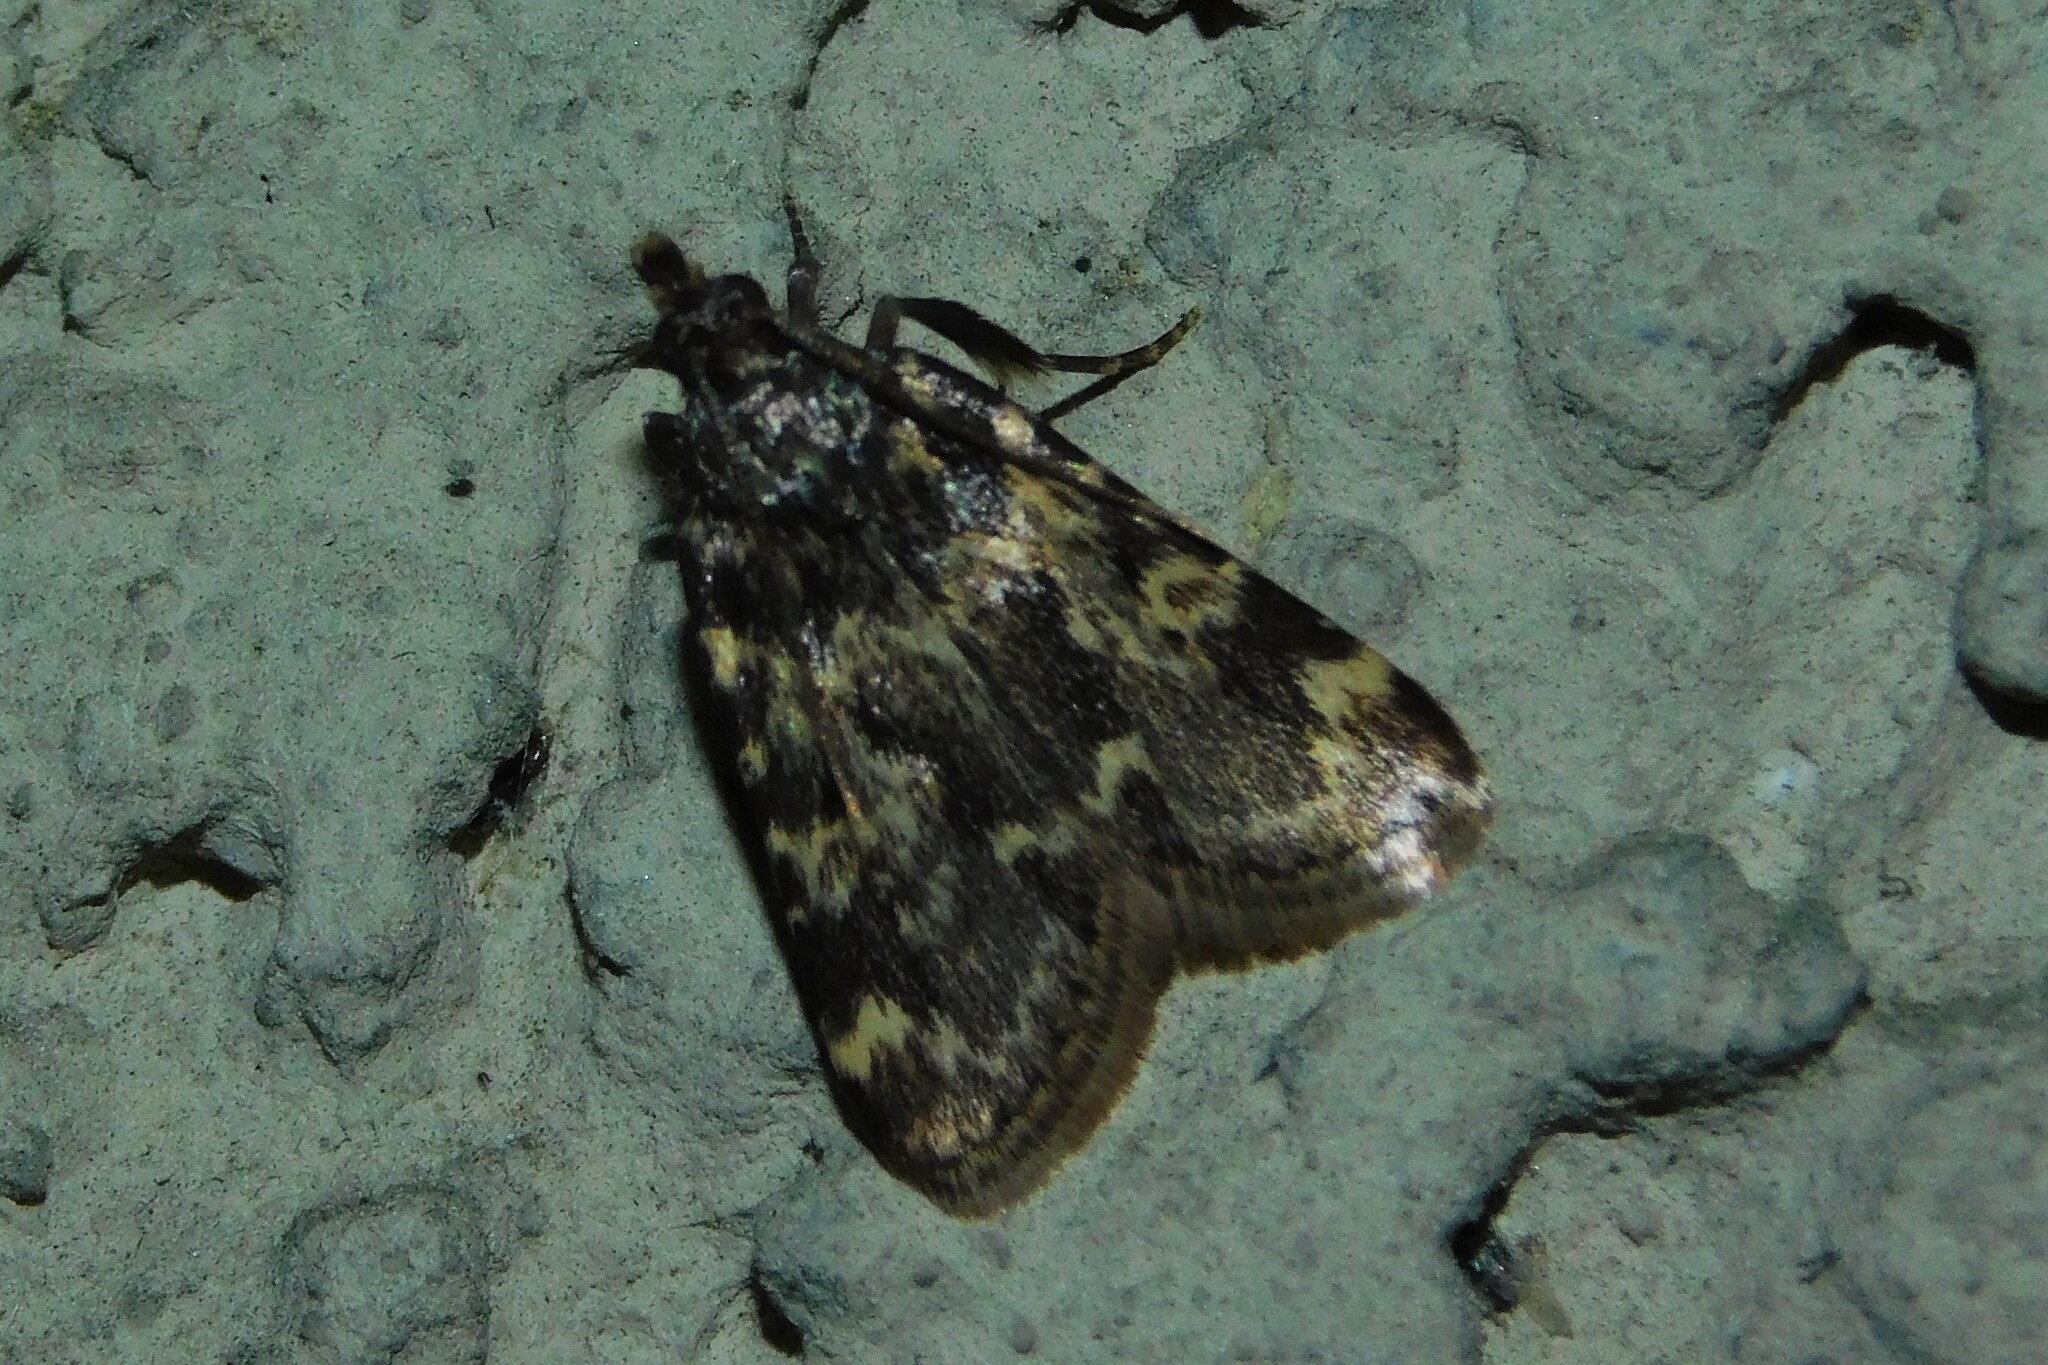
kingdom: Animalia
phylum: Arthropoda
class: Insecta
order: Lepidoptera
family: Pyralidae
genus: Aglossa
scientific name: Aglossa caprealis
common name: Small tabby
